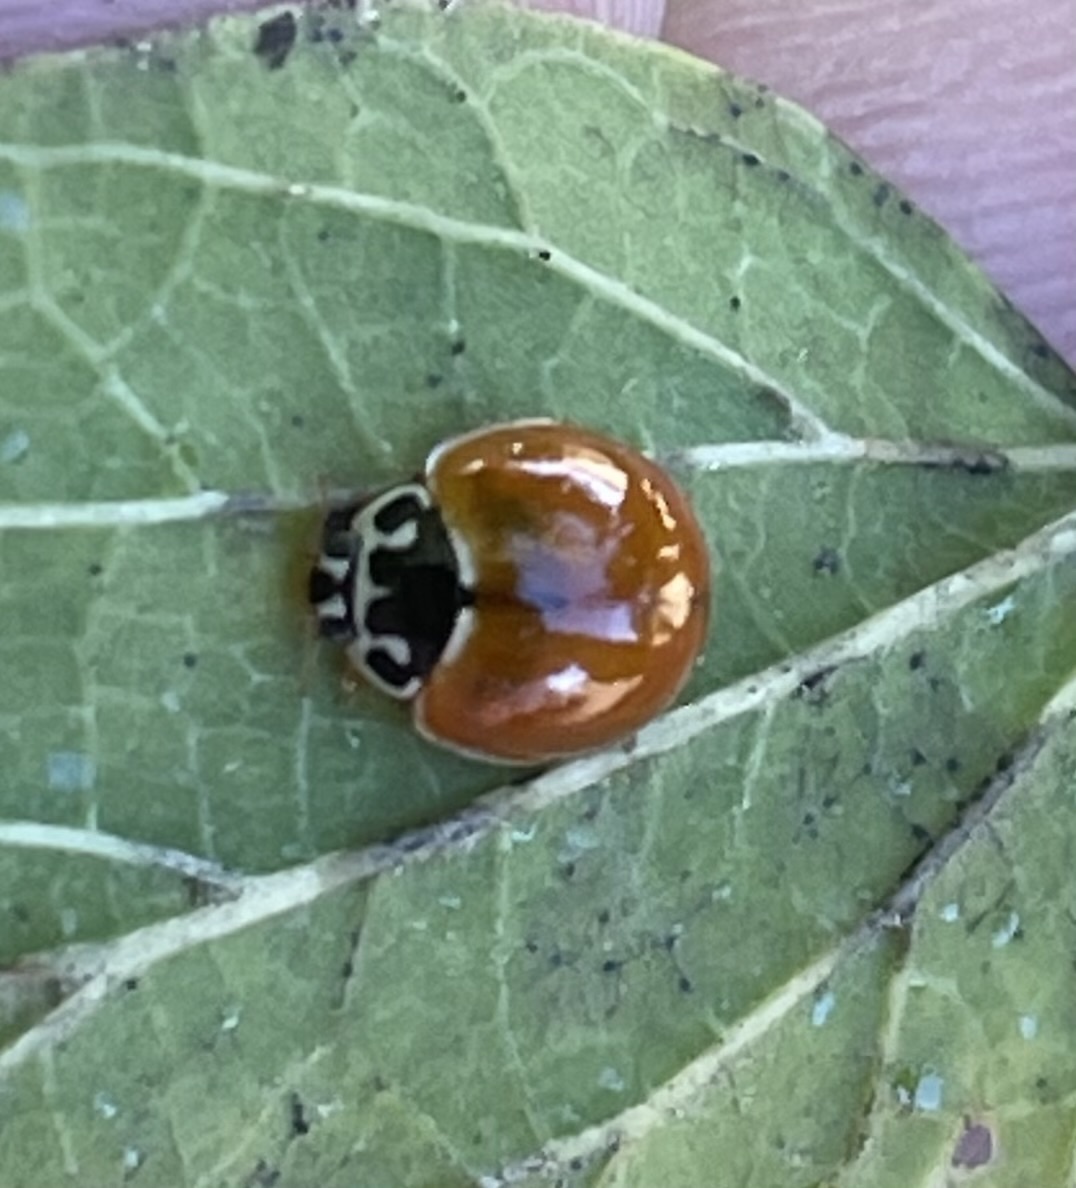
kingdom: Animalia
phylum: Arthropoda
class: Insecta
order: Coleoptera
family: Coccinellidae
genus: Cycloneda
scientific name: Cycloneda munda
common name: Polished lady beetle
